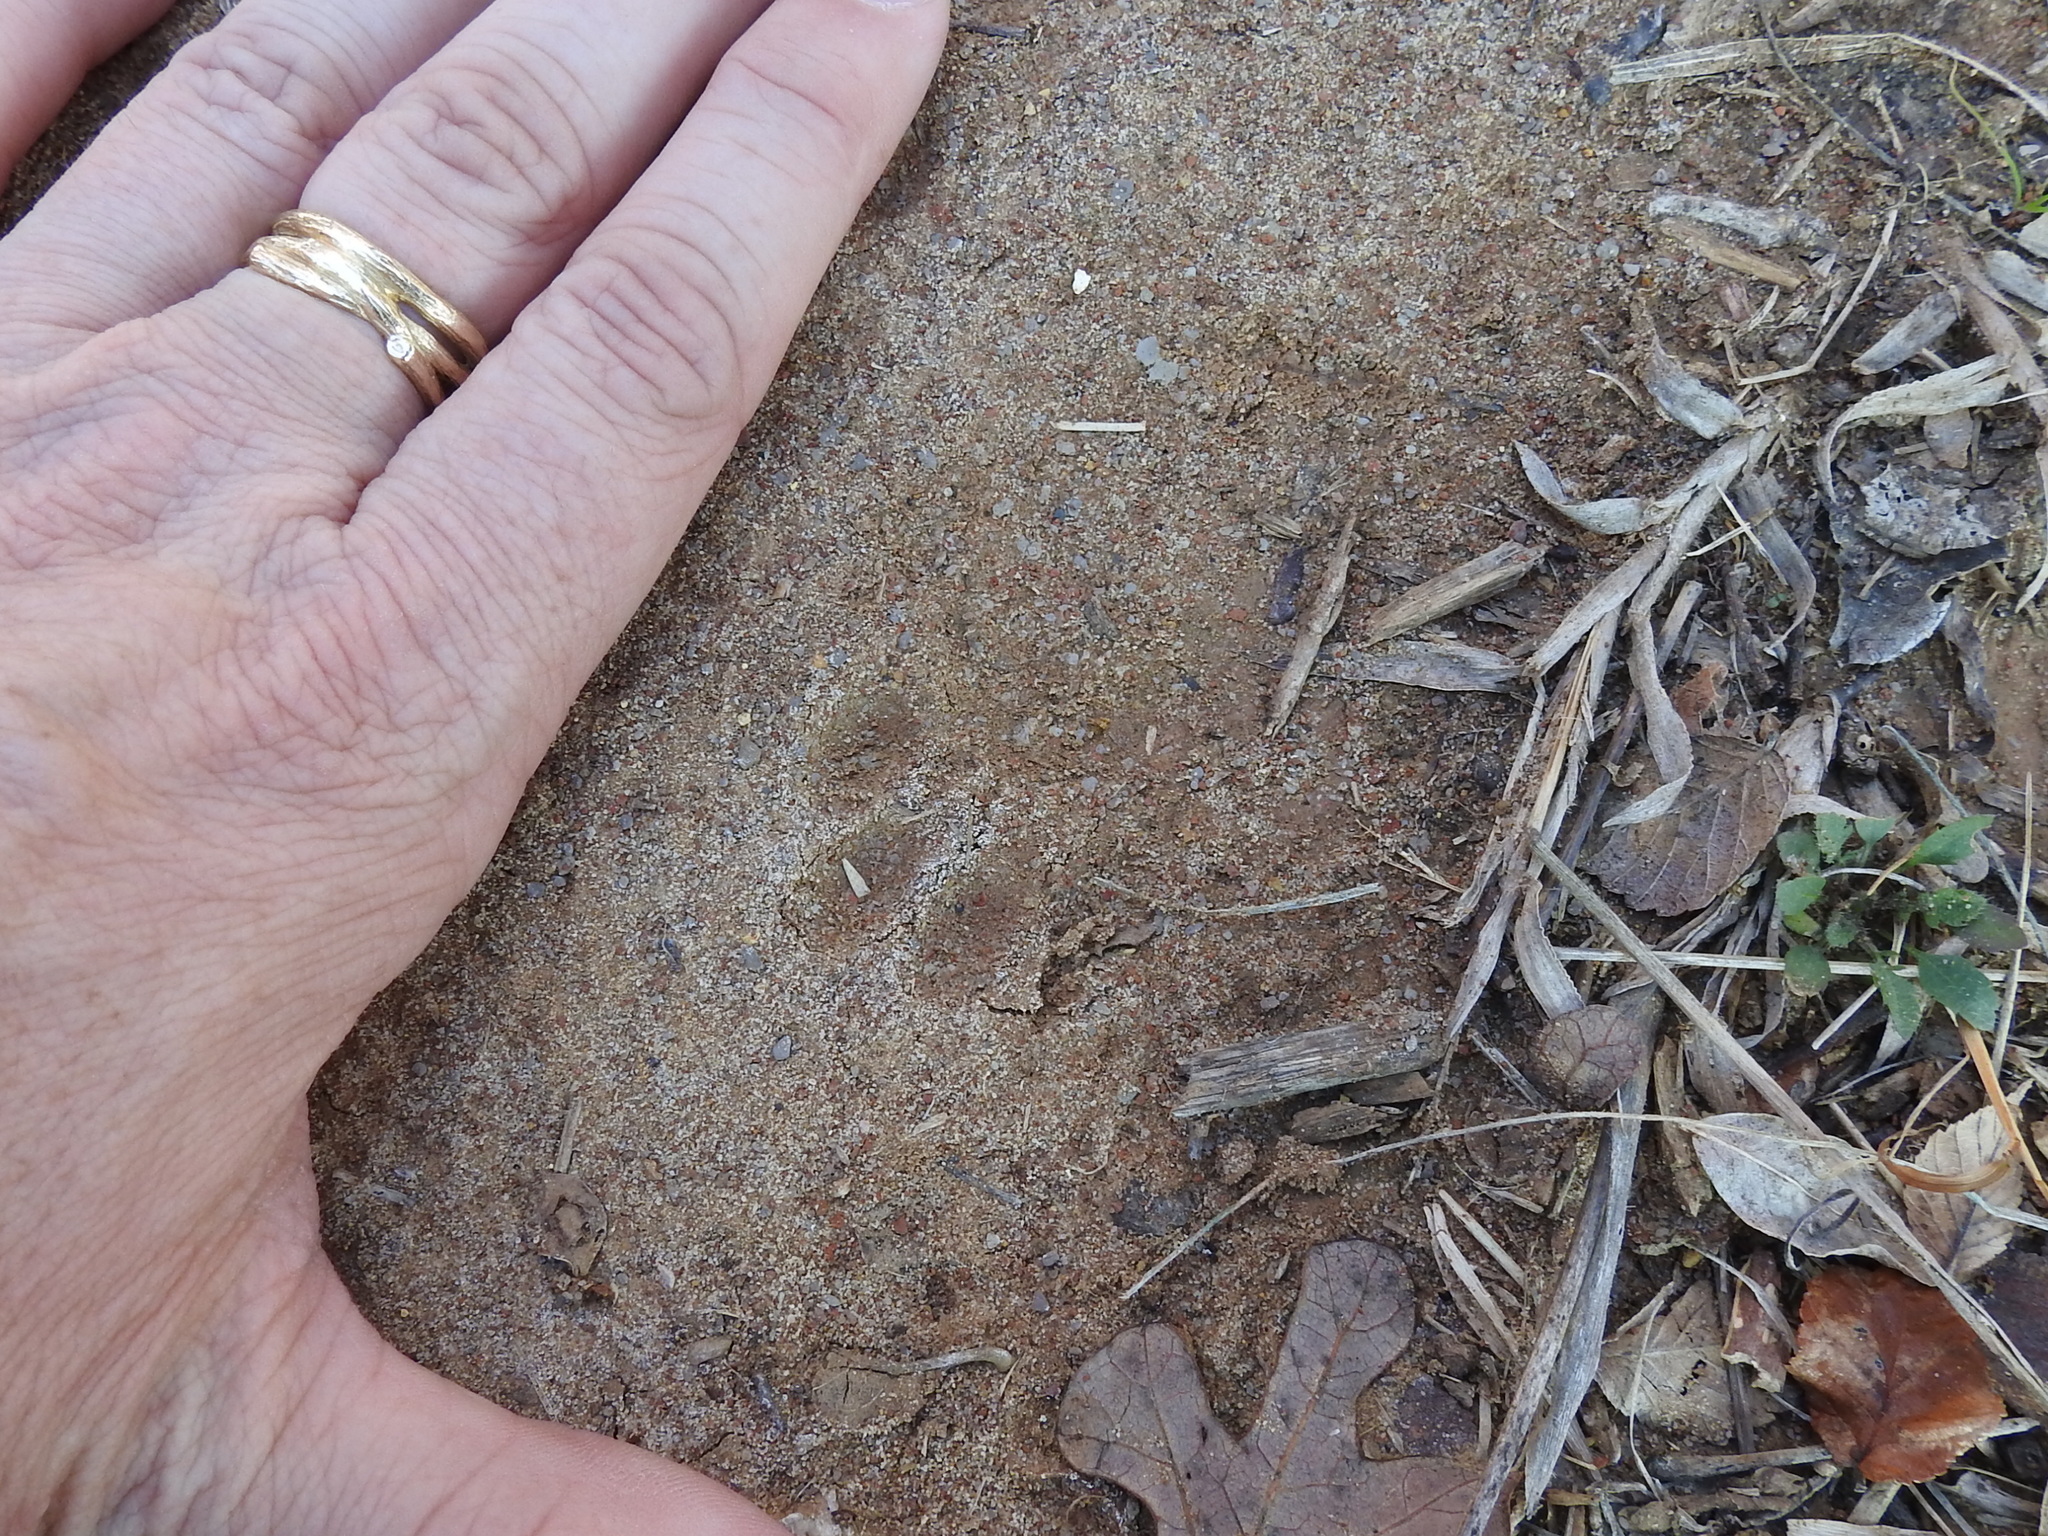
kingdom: Animalia
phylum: Chordata
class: Mammalia
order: Carnivora
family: Felidae
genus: Felis
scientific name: Felis catus
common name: Domestic cat
